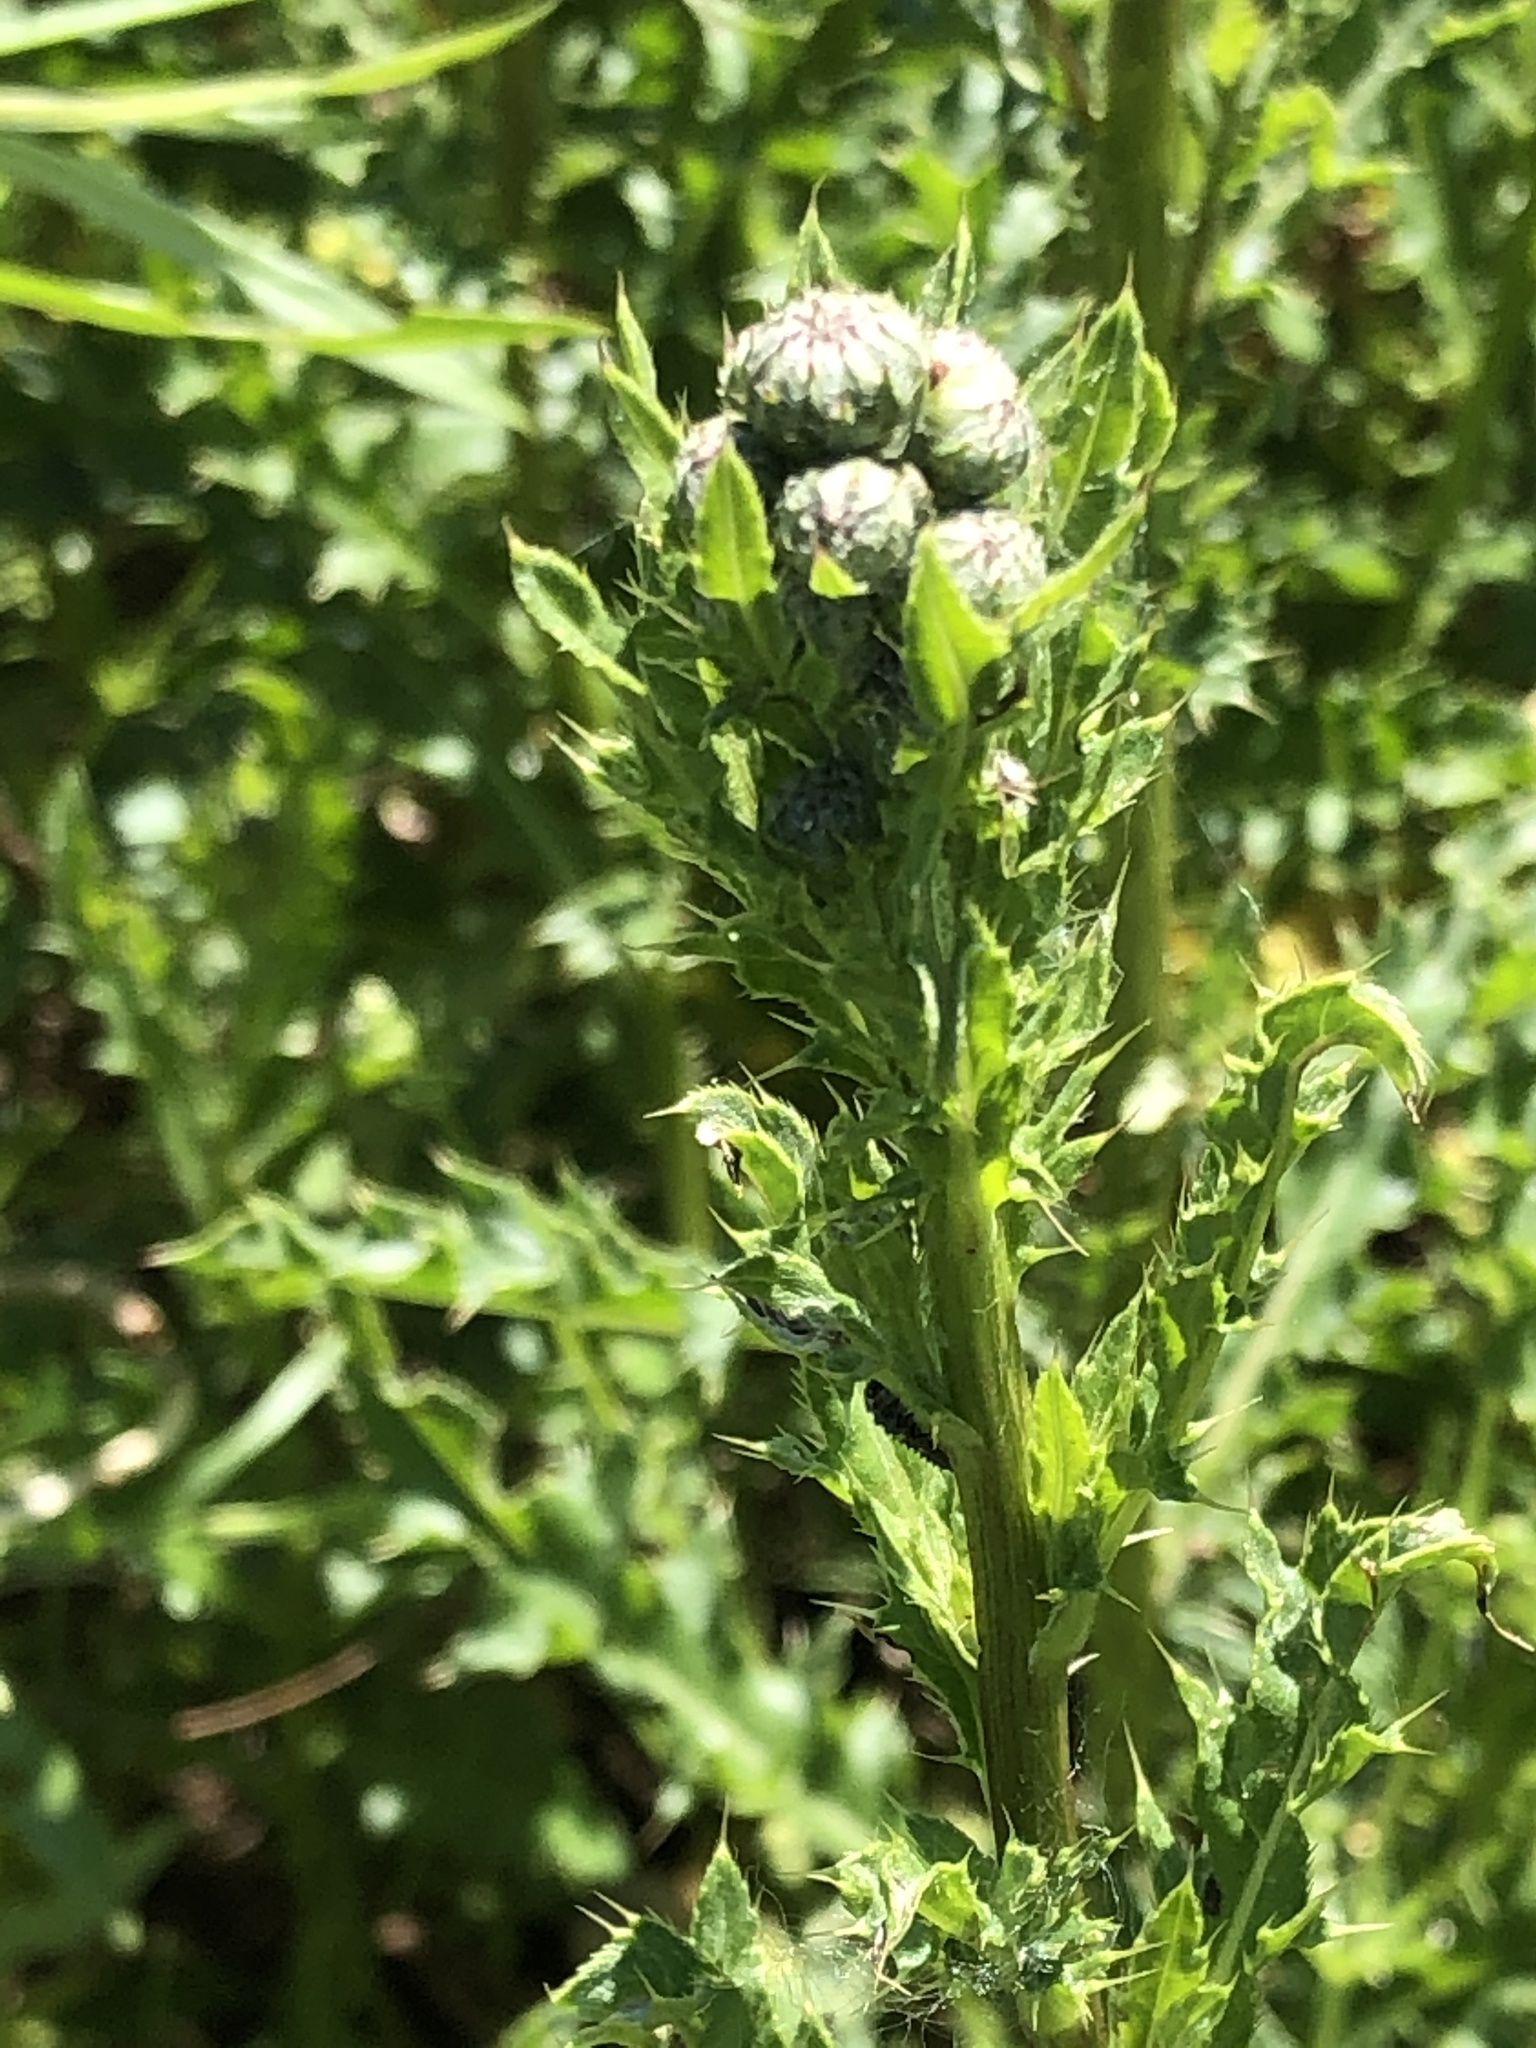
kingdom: Plantae
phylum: Tracheophyta
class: Magnoliopsida
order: Asterales
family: Asteraceae
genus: Cirsium
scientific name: Cirsium arvense
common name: Creeping thistle
